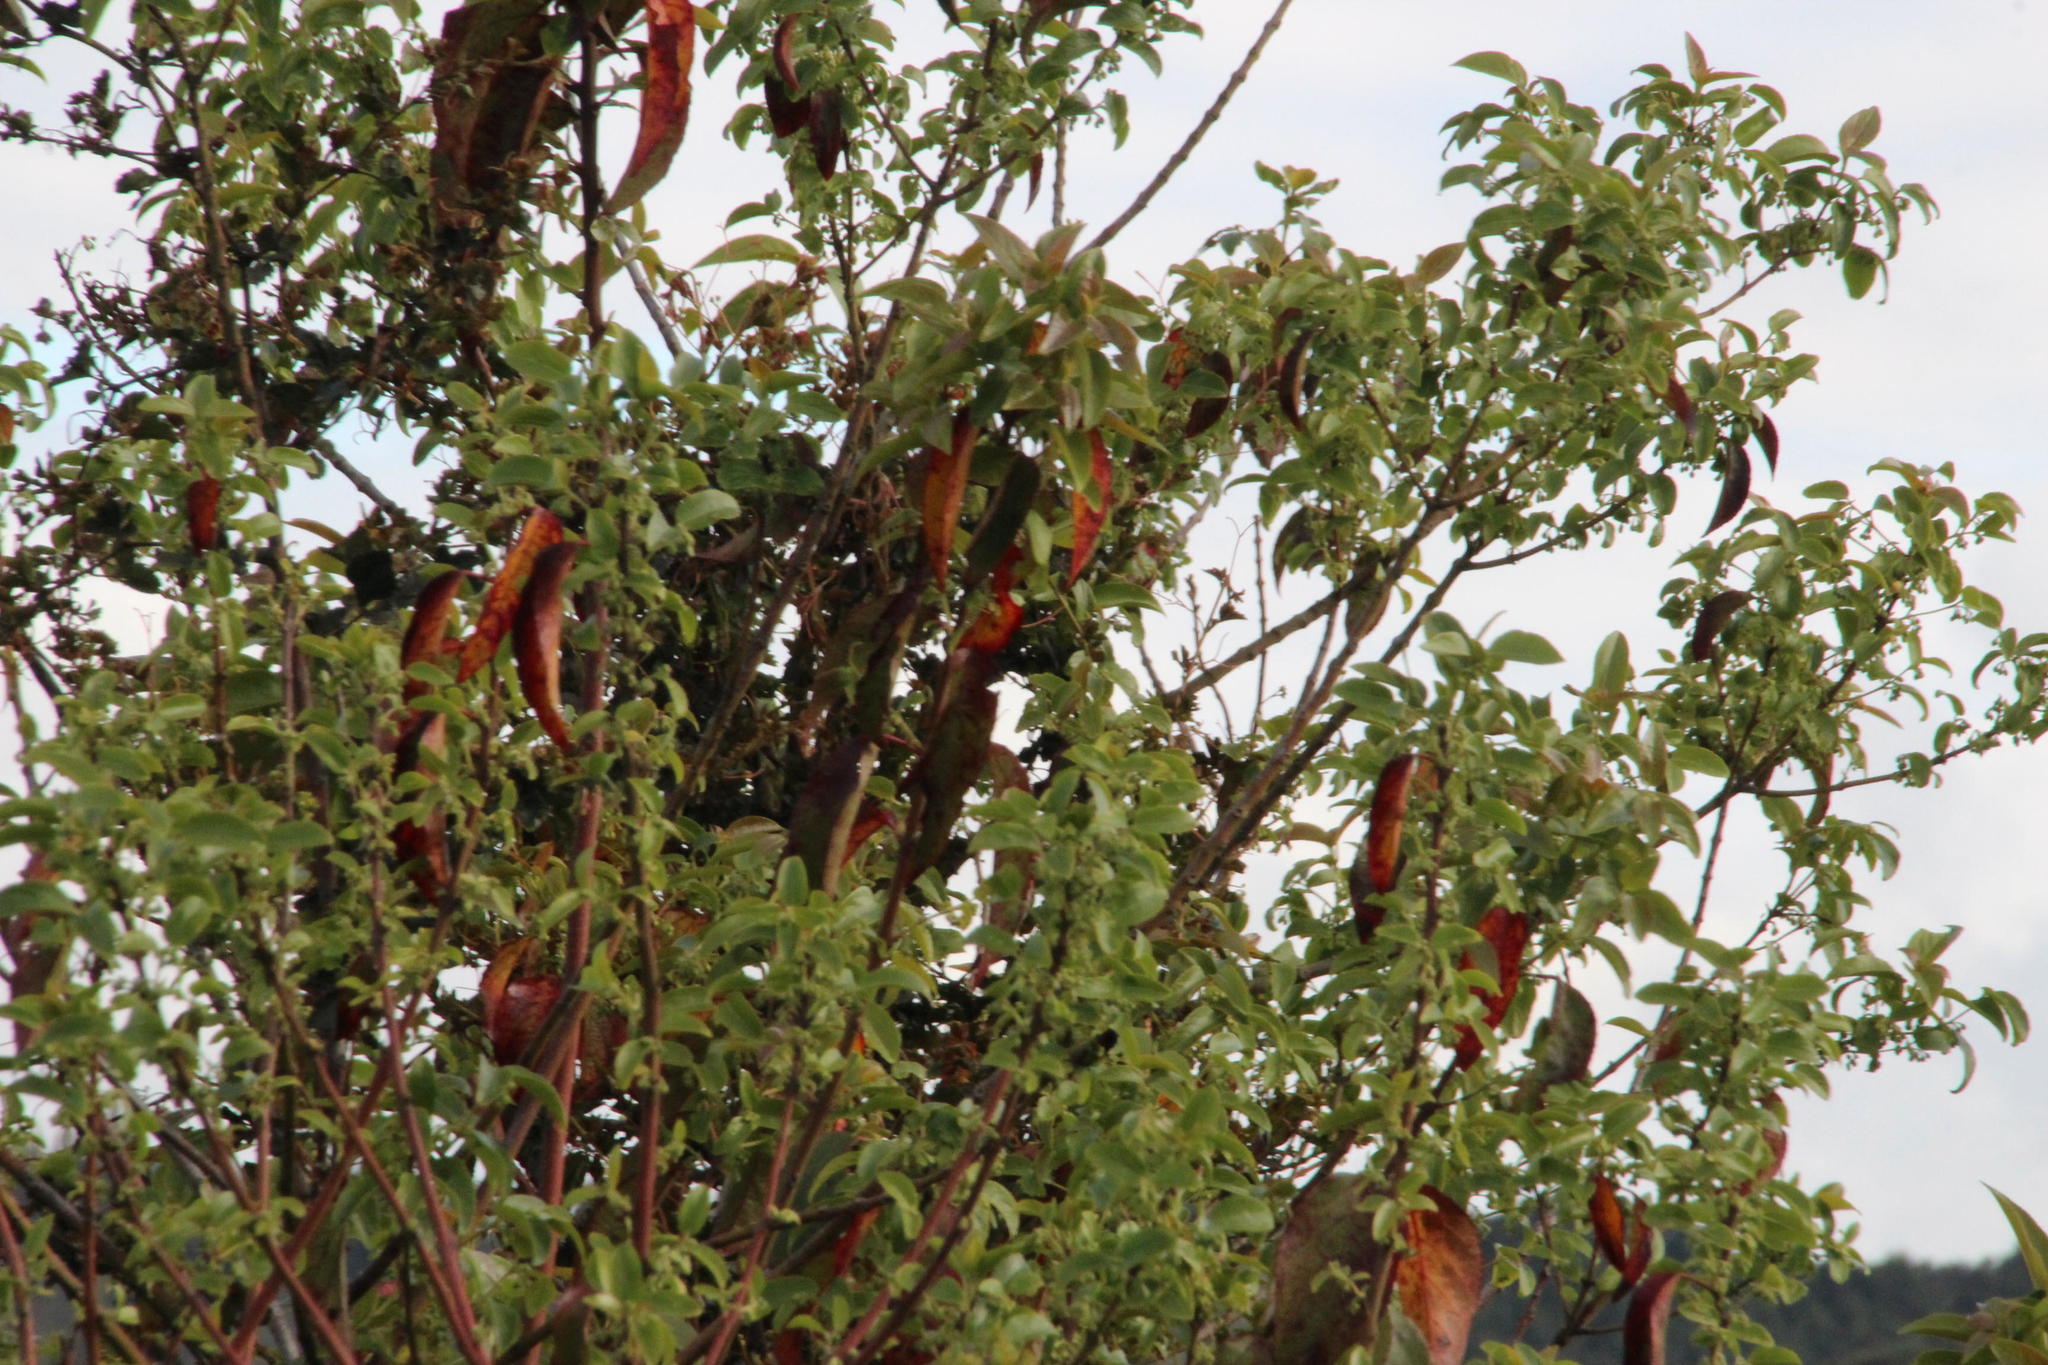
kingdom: Plantae
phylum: Tracheophyta
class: Magnoliopsida
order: Oxalidales
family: Elaeocarpaceae
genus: Aristotelia
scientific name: Aristotelia chilensis
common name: Maquei
